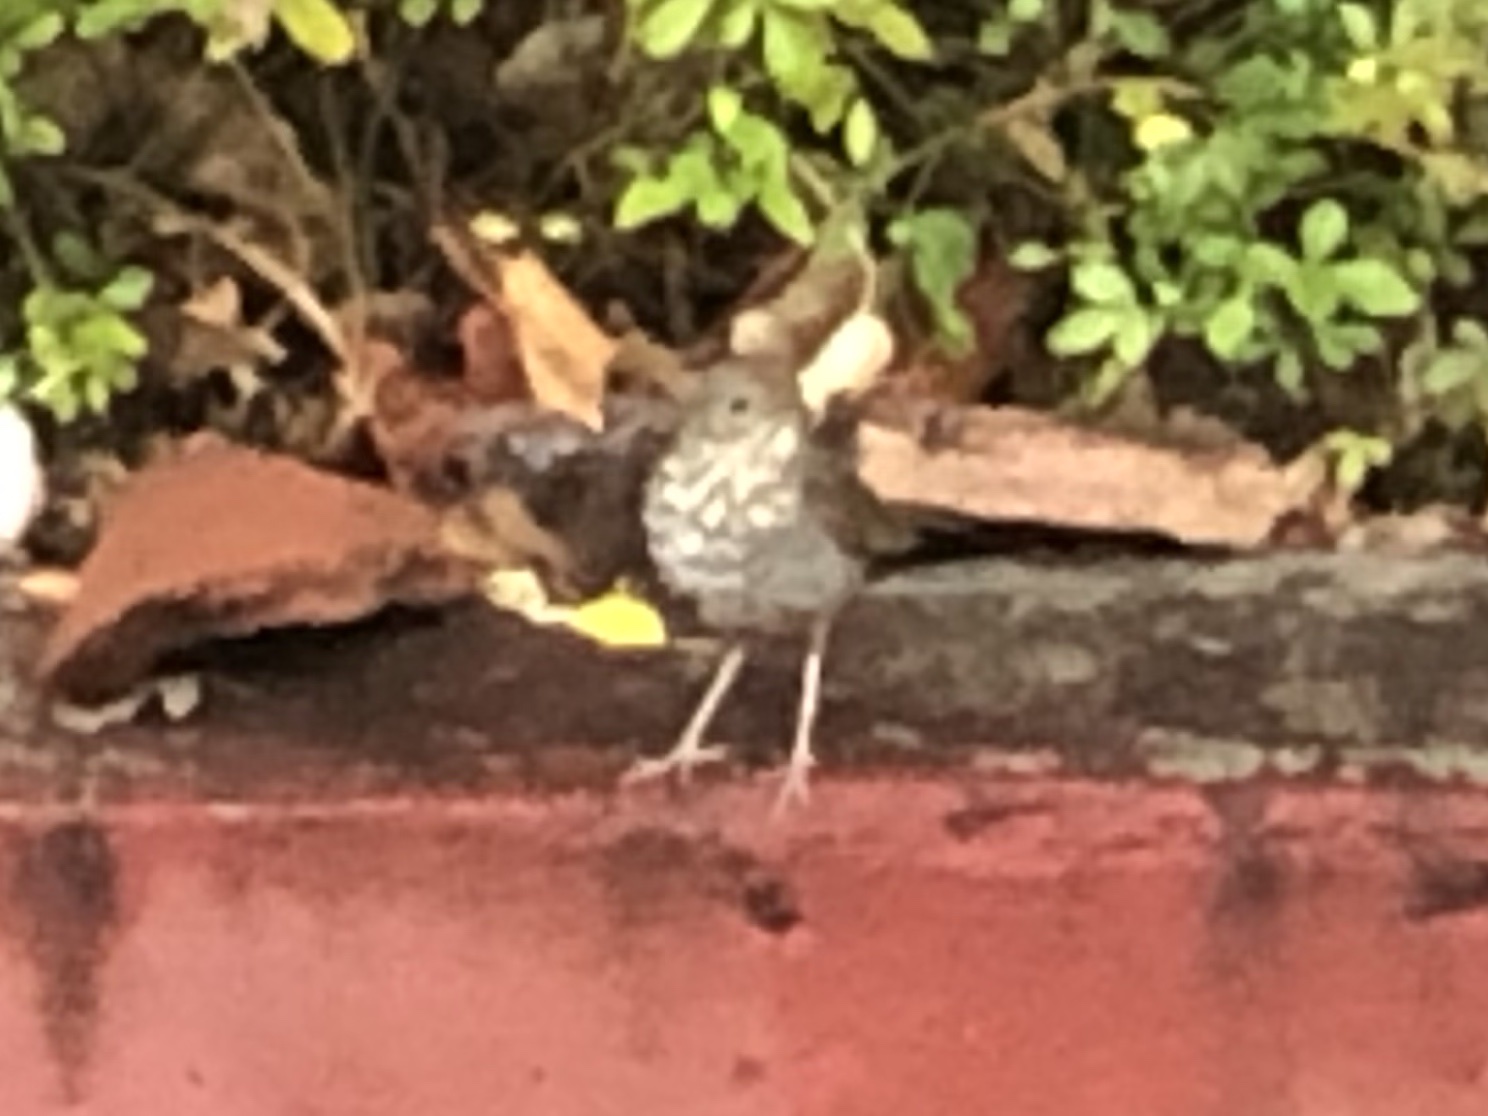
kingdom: Animalia
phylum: Chordata
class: Aves
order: Passeriformes
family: Turdidae
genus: Catharus
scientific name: Catharus guttatus
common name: Hermit thrush
